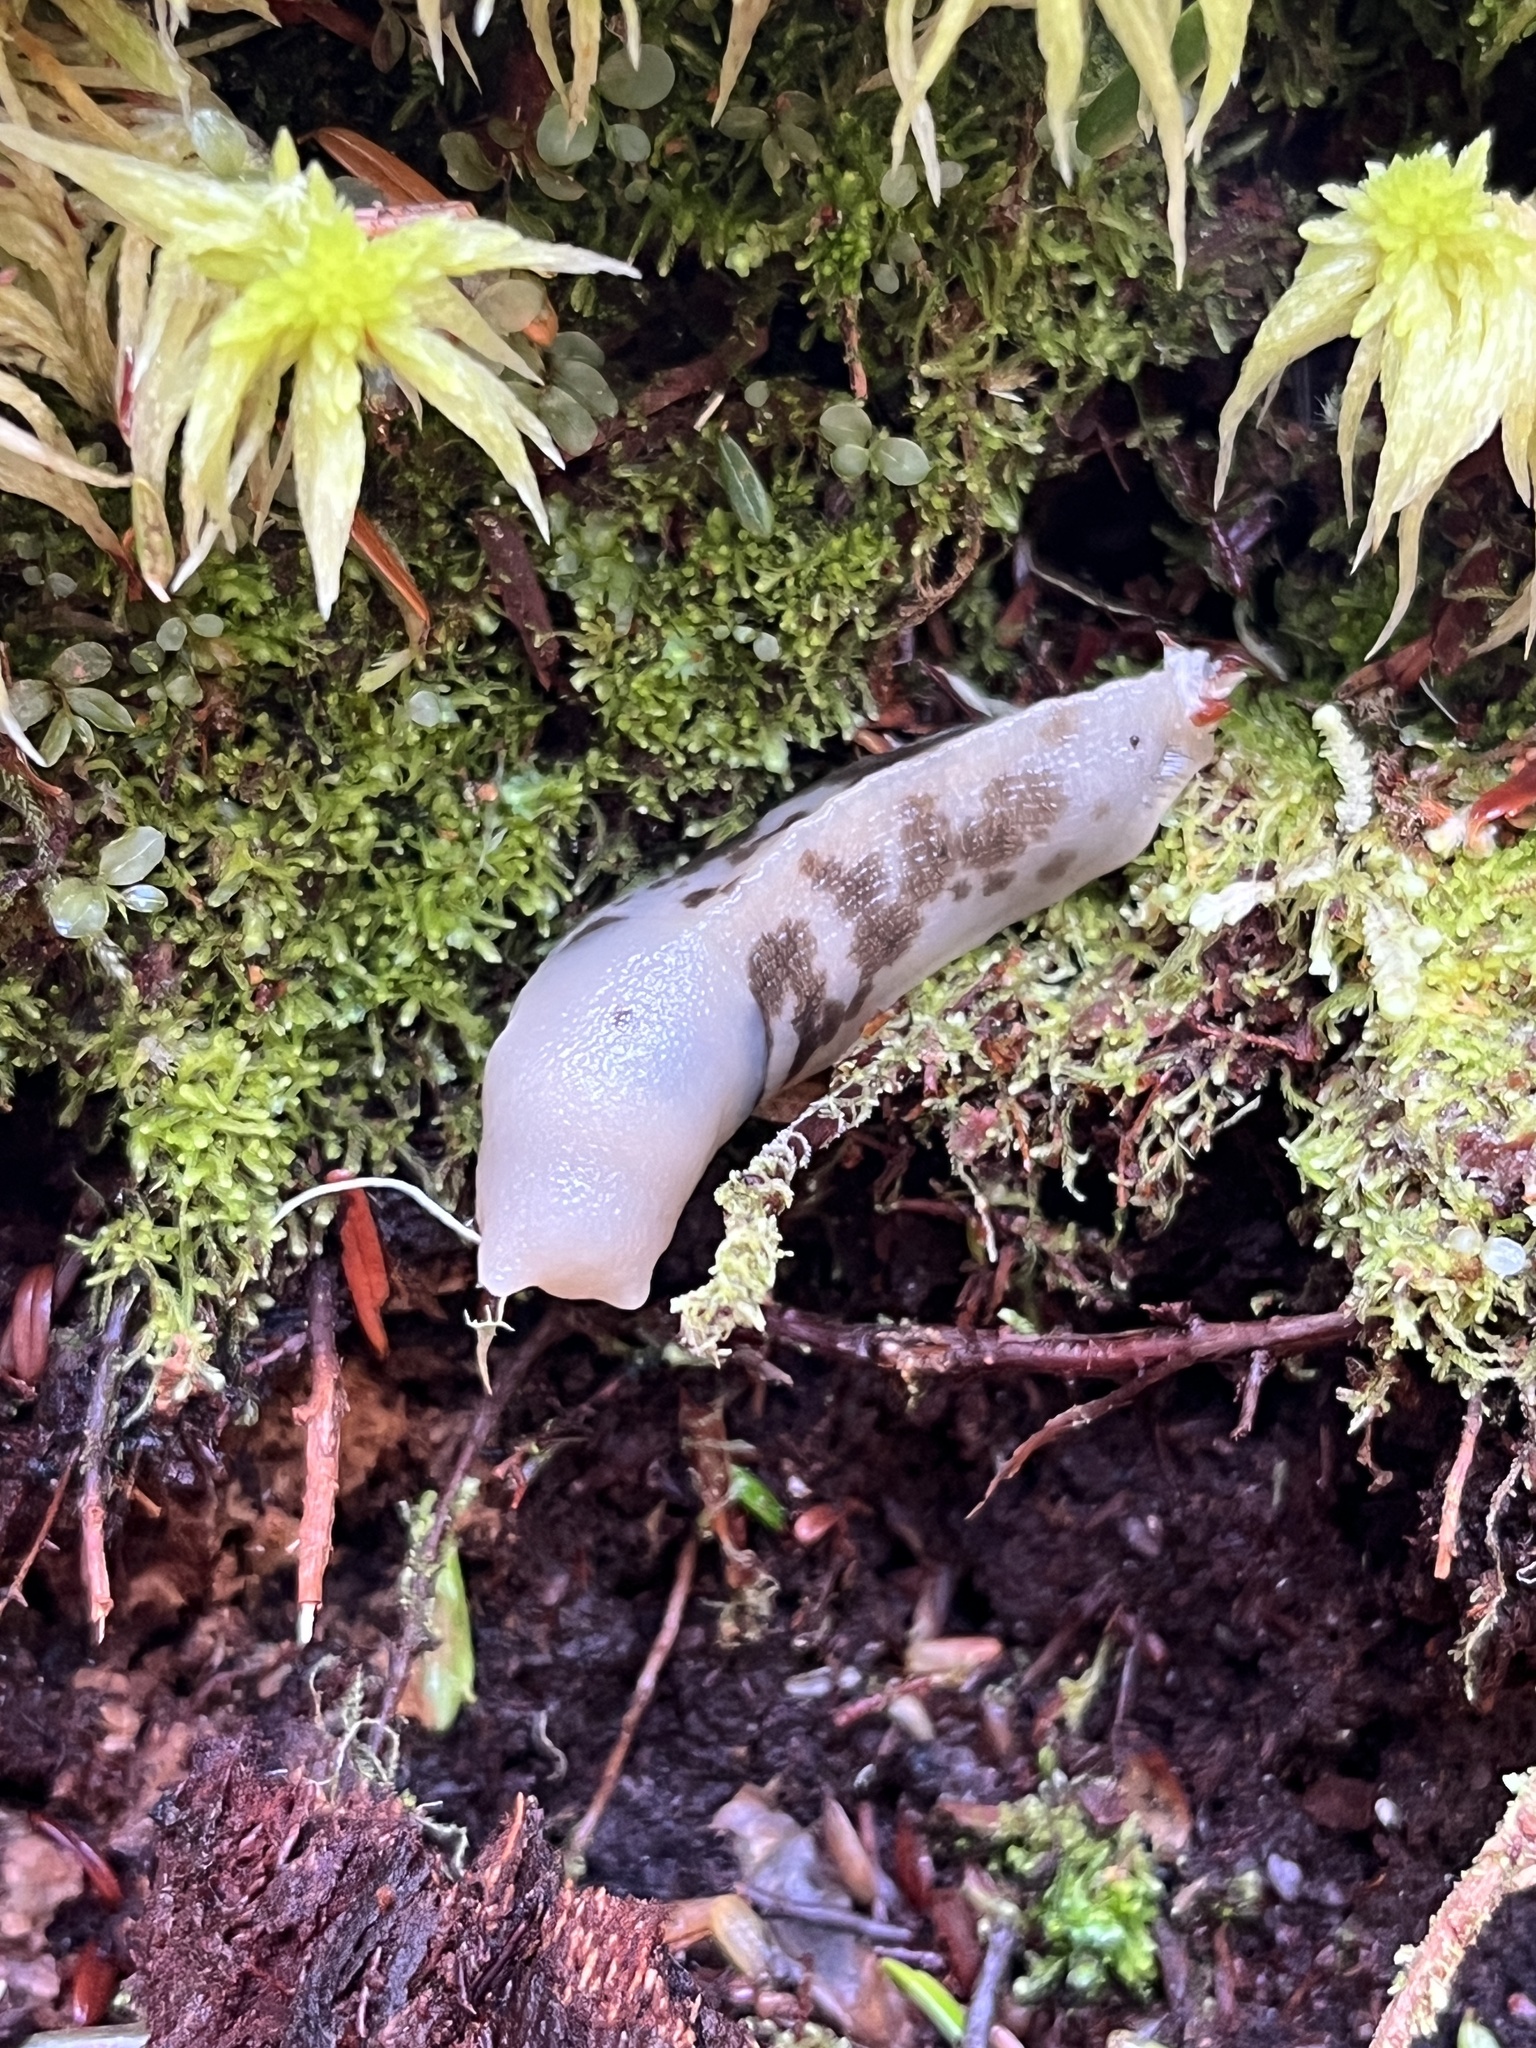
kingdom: Animalia
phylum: Mollusca
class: Gastropoda
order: Stylommatophora
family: Ariolimacidae
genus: Ariolimax
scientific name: Ariolimax columbianus
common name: Pacific banana slug
